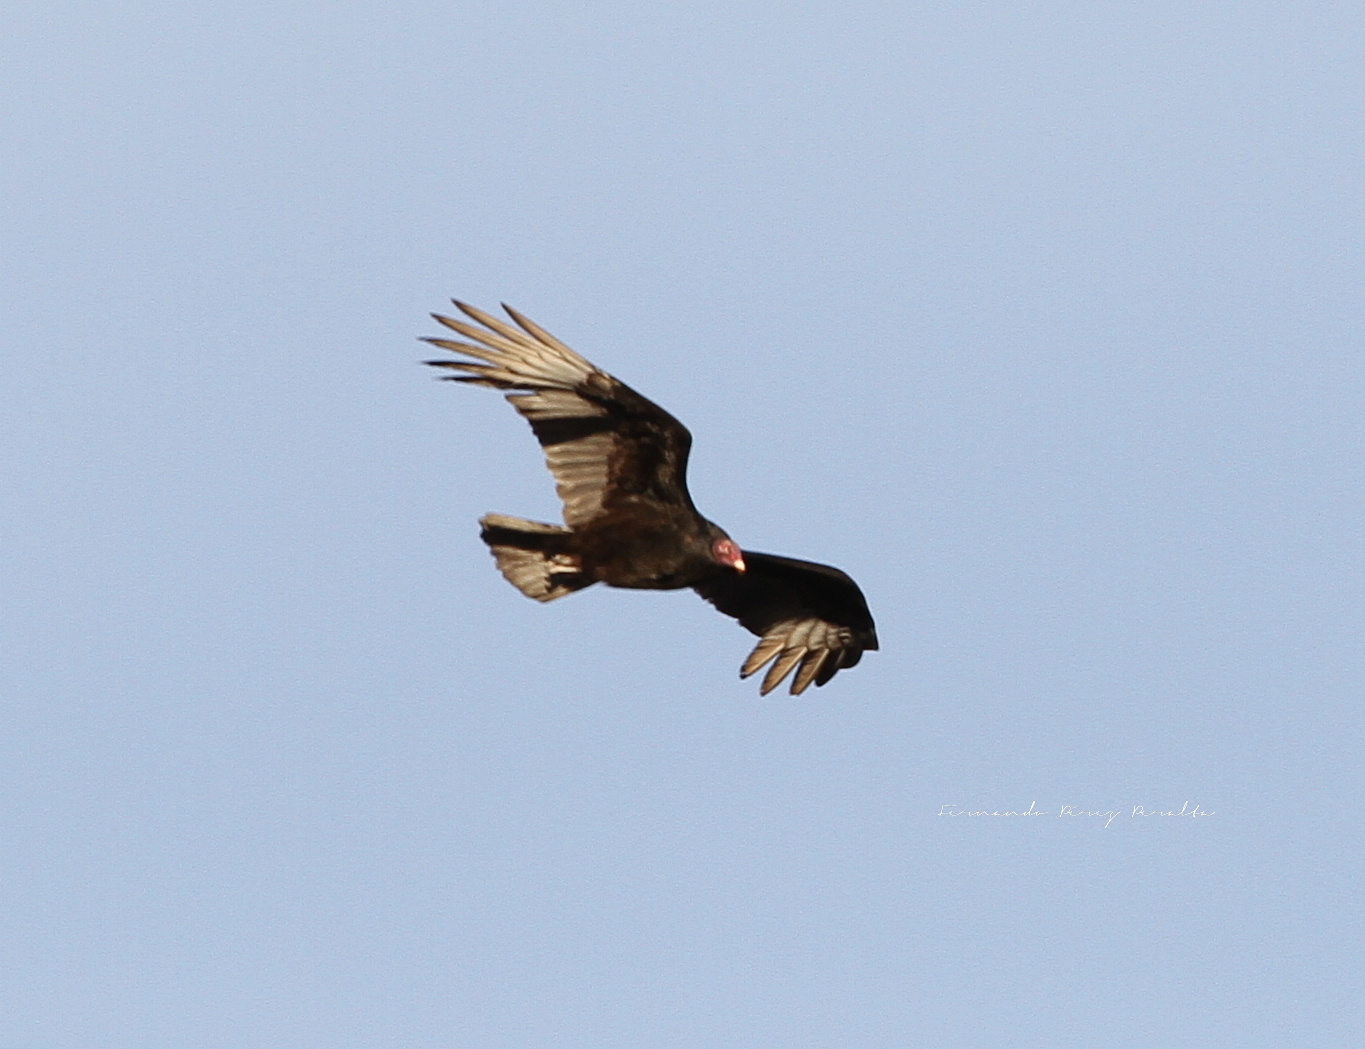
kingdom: Animalia
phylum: Chordata
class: Aves
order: Accipitriformes
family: Cathartidae
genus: Cathartes
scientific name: Cathartes aura
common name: Turkey vulture
